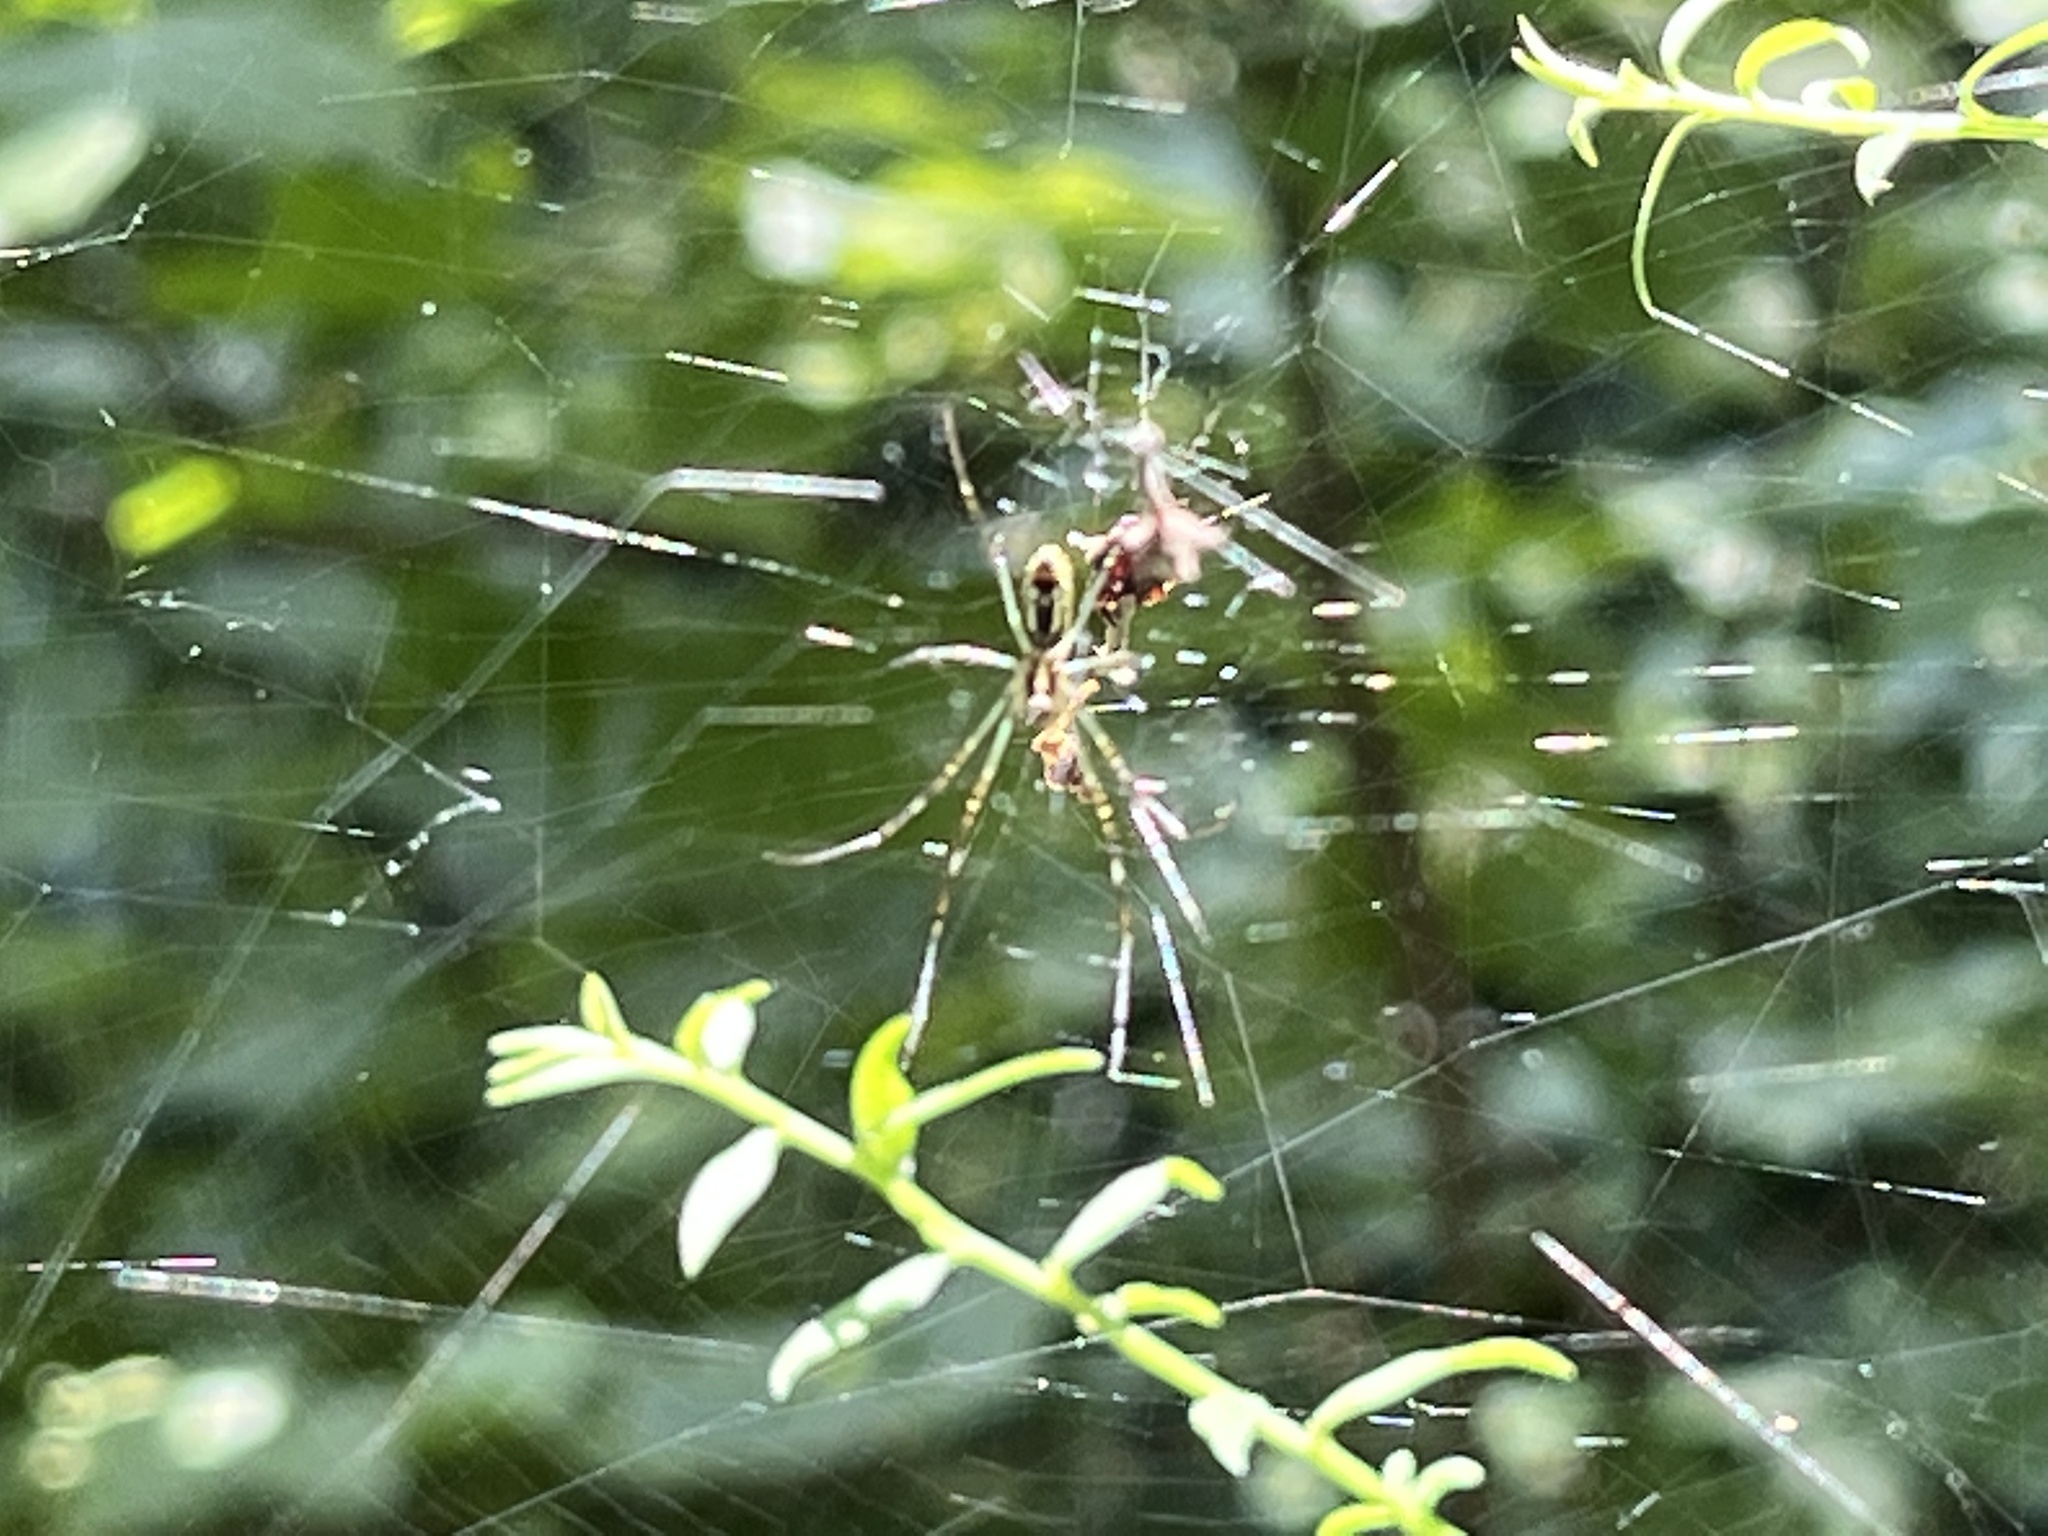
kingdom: Animalia
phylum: Arthropoda
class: Arachnida
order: Araneae
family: Araneidae
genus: Trichonephila
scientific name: Trichonephila clavata
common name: Jorō spider
